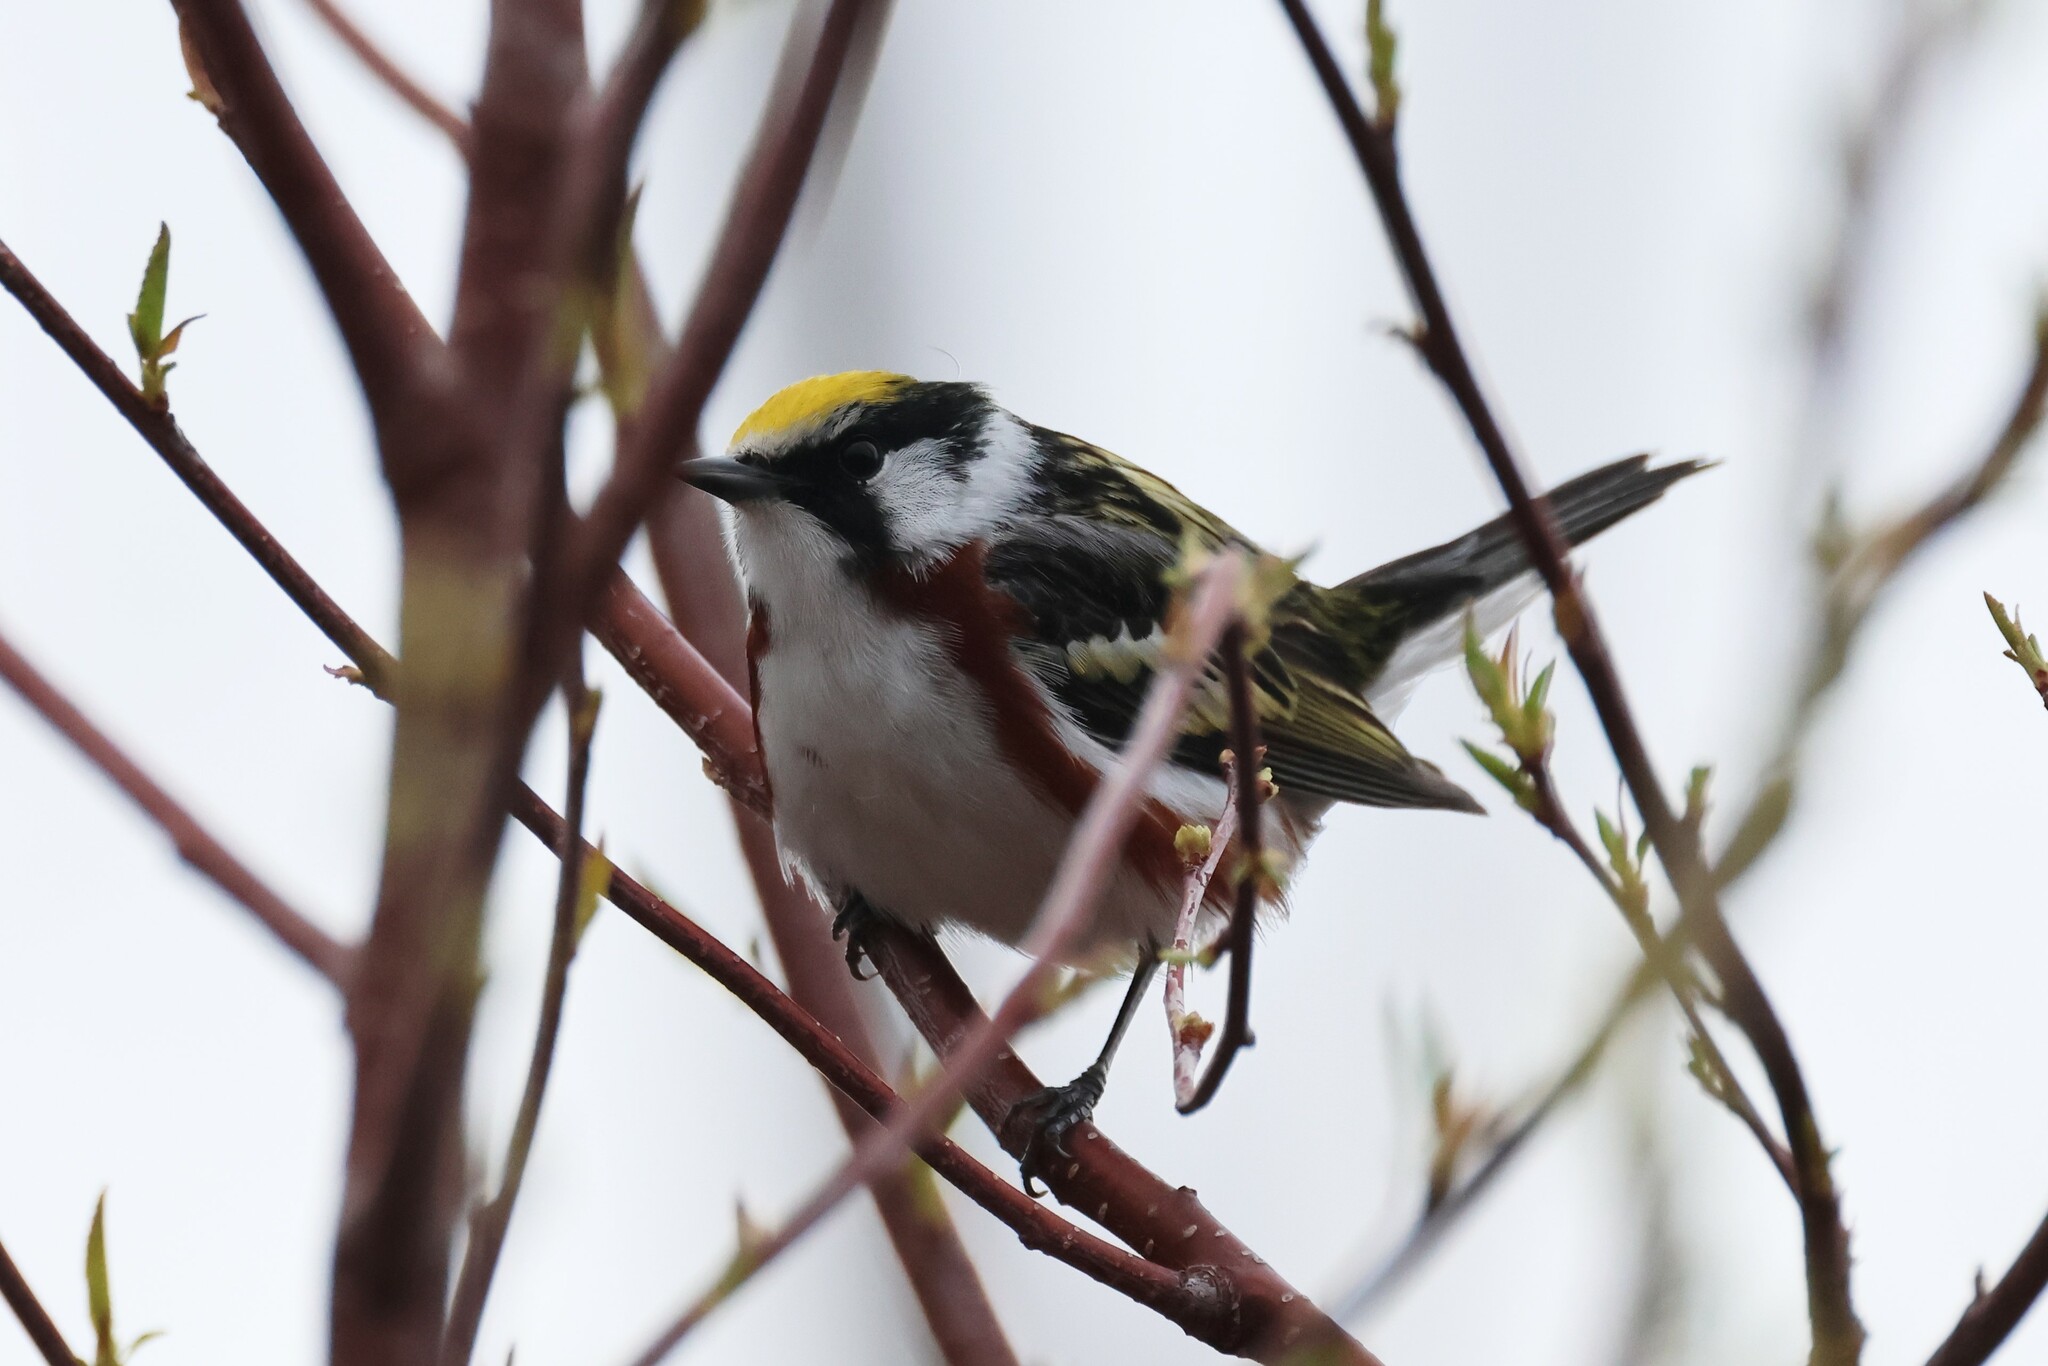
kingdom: Animalia
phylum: Chordata
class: Aves
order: Passeriformes
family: Parulidae
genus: Setophaga
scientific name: Setophaga pensylvanica
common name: Chestnut-sided warbler
